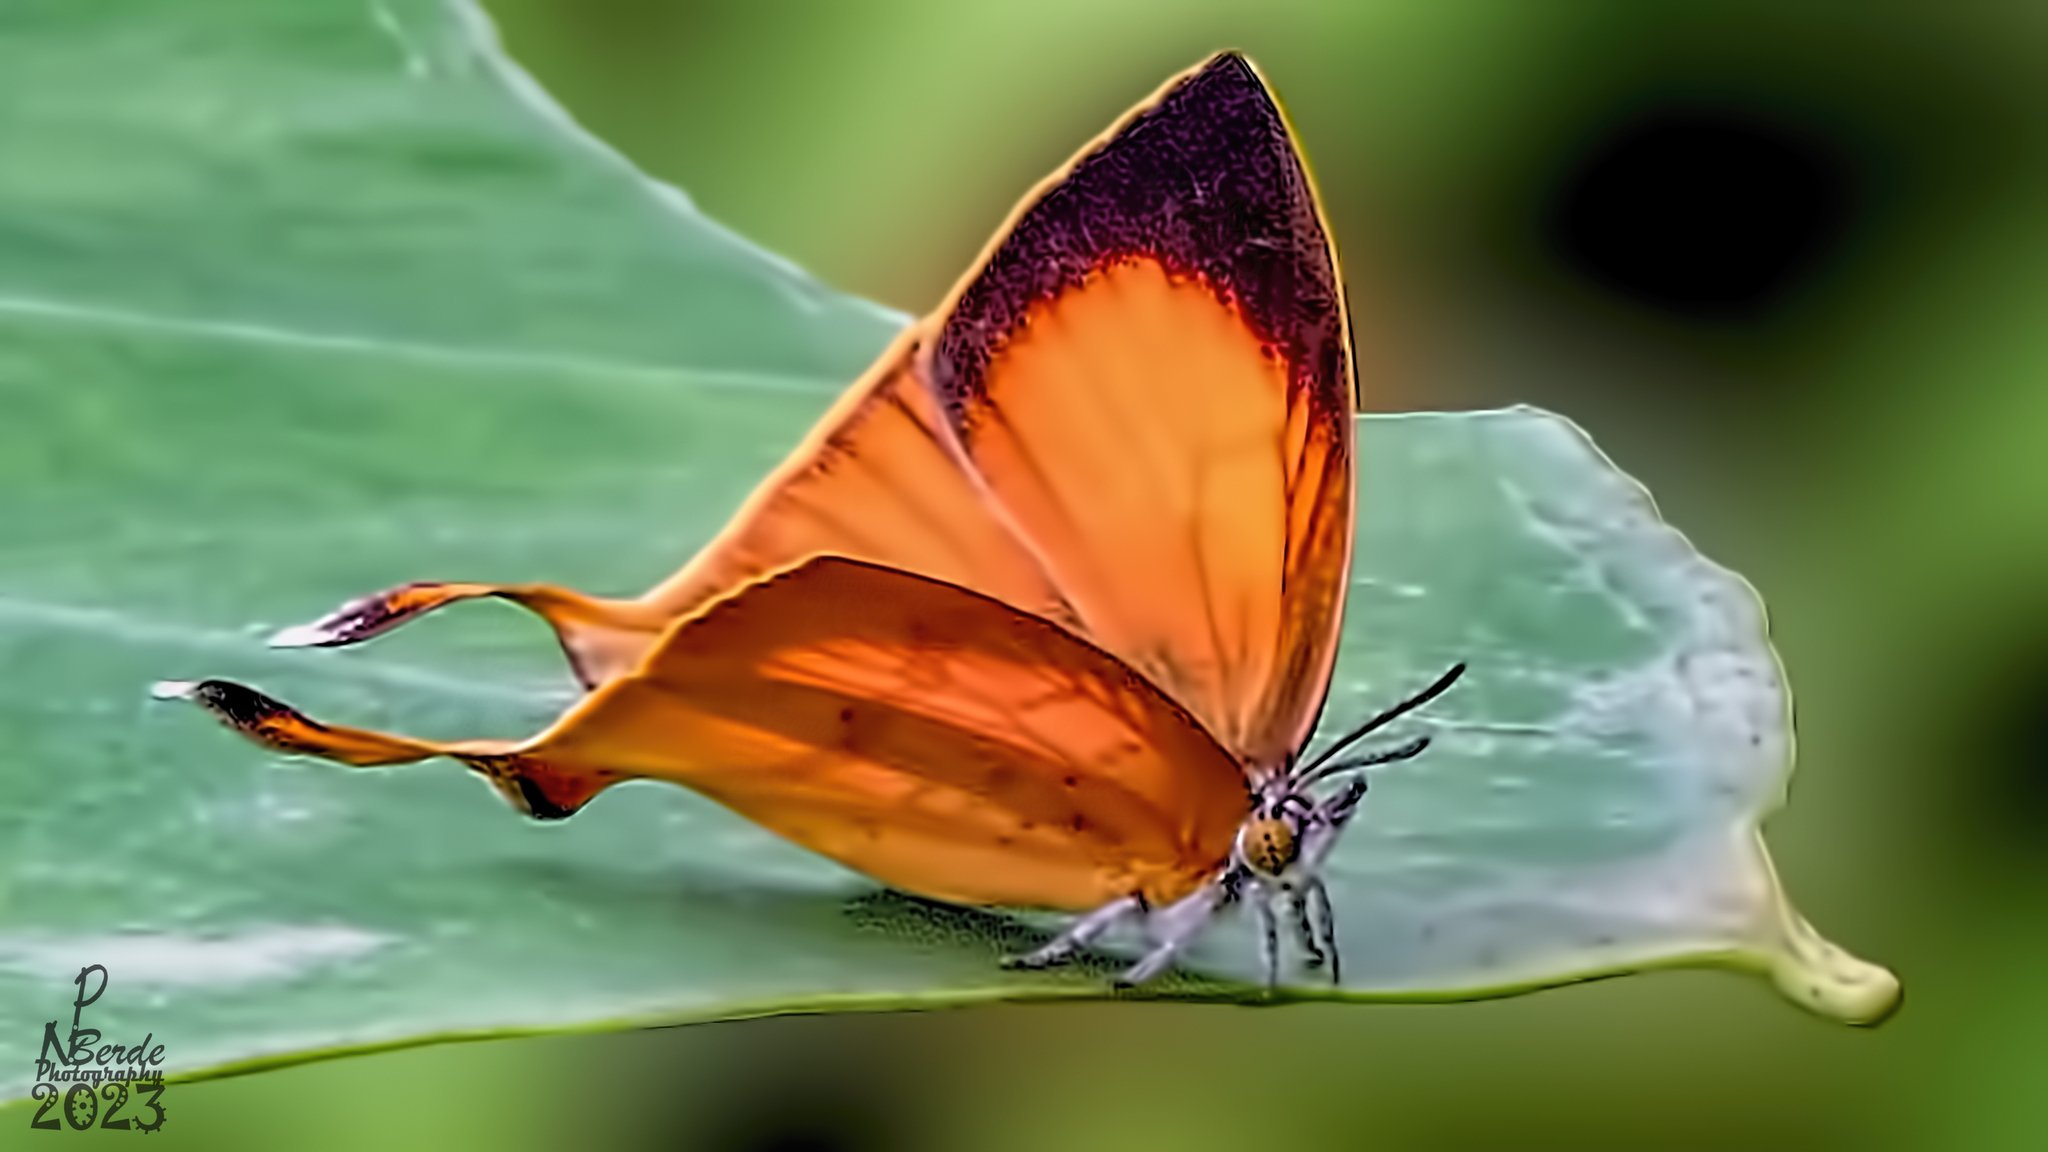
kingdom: Animalia
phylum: Arthropoda
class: Insecta
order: Lepidoptera
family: Lycaenidae
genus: Loxura
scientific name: Loxura atymnus
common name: Common yamfly
